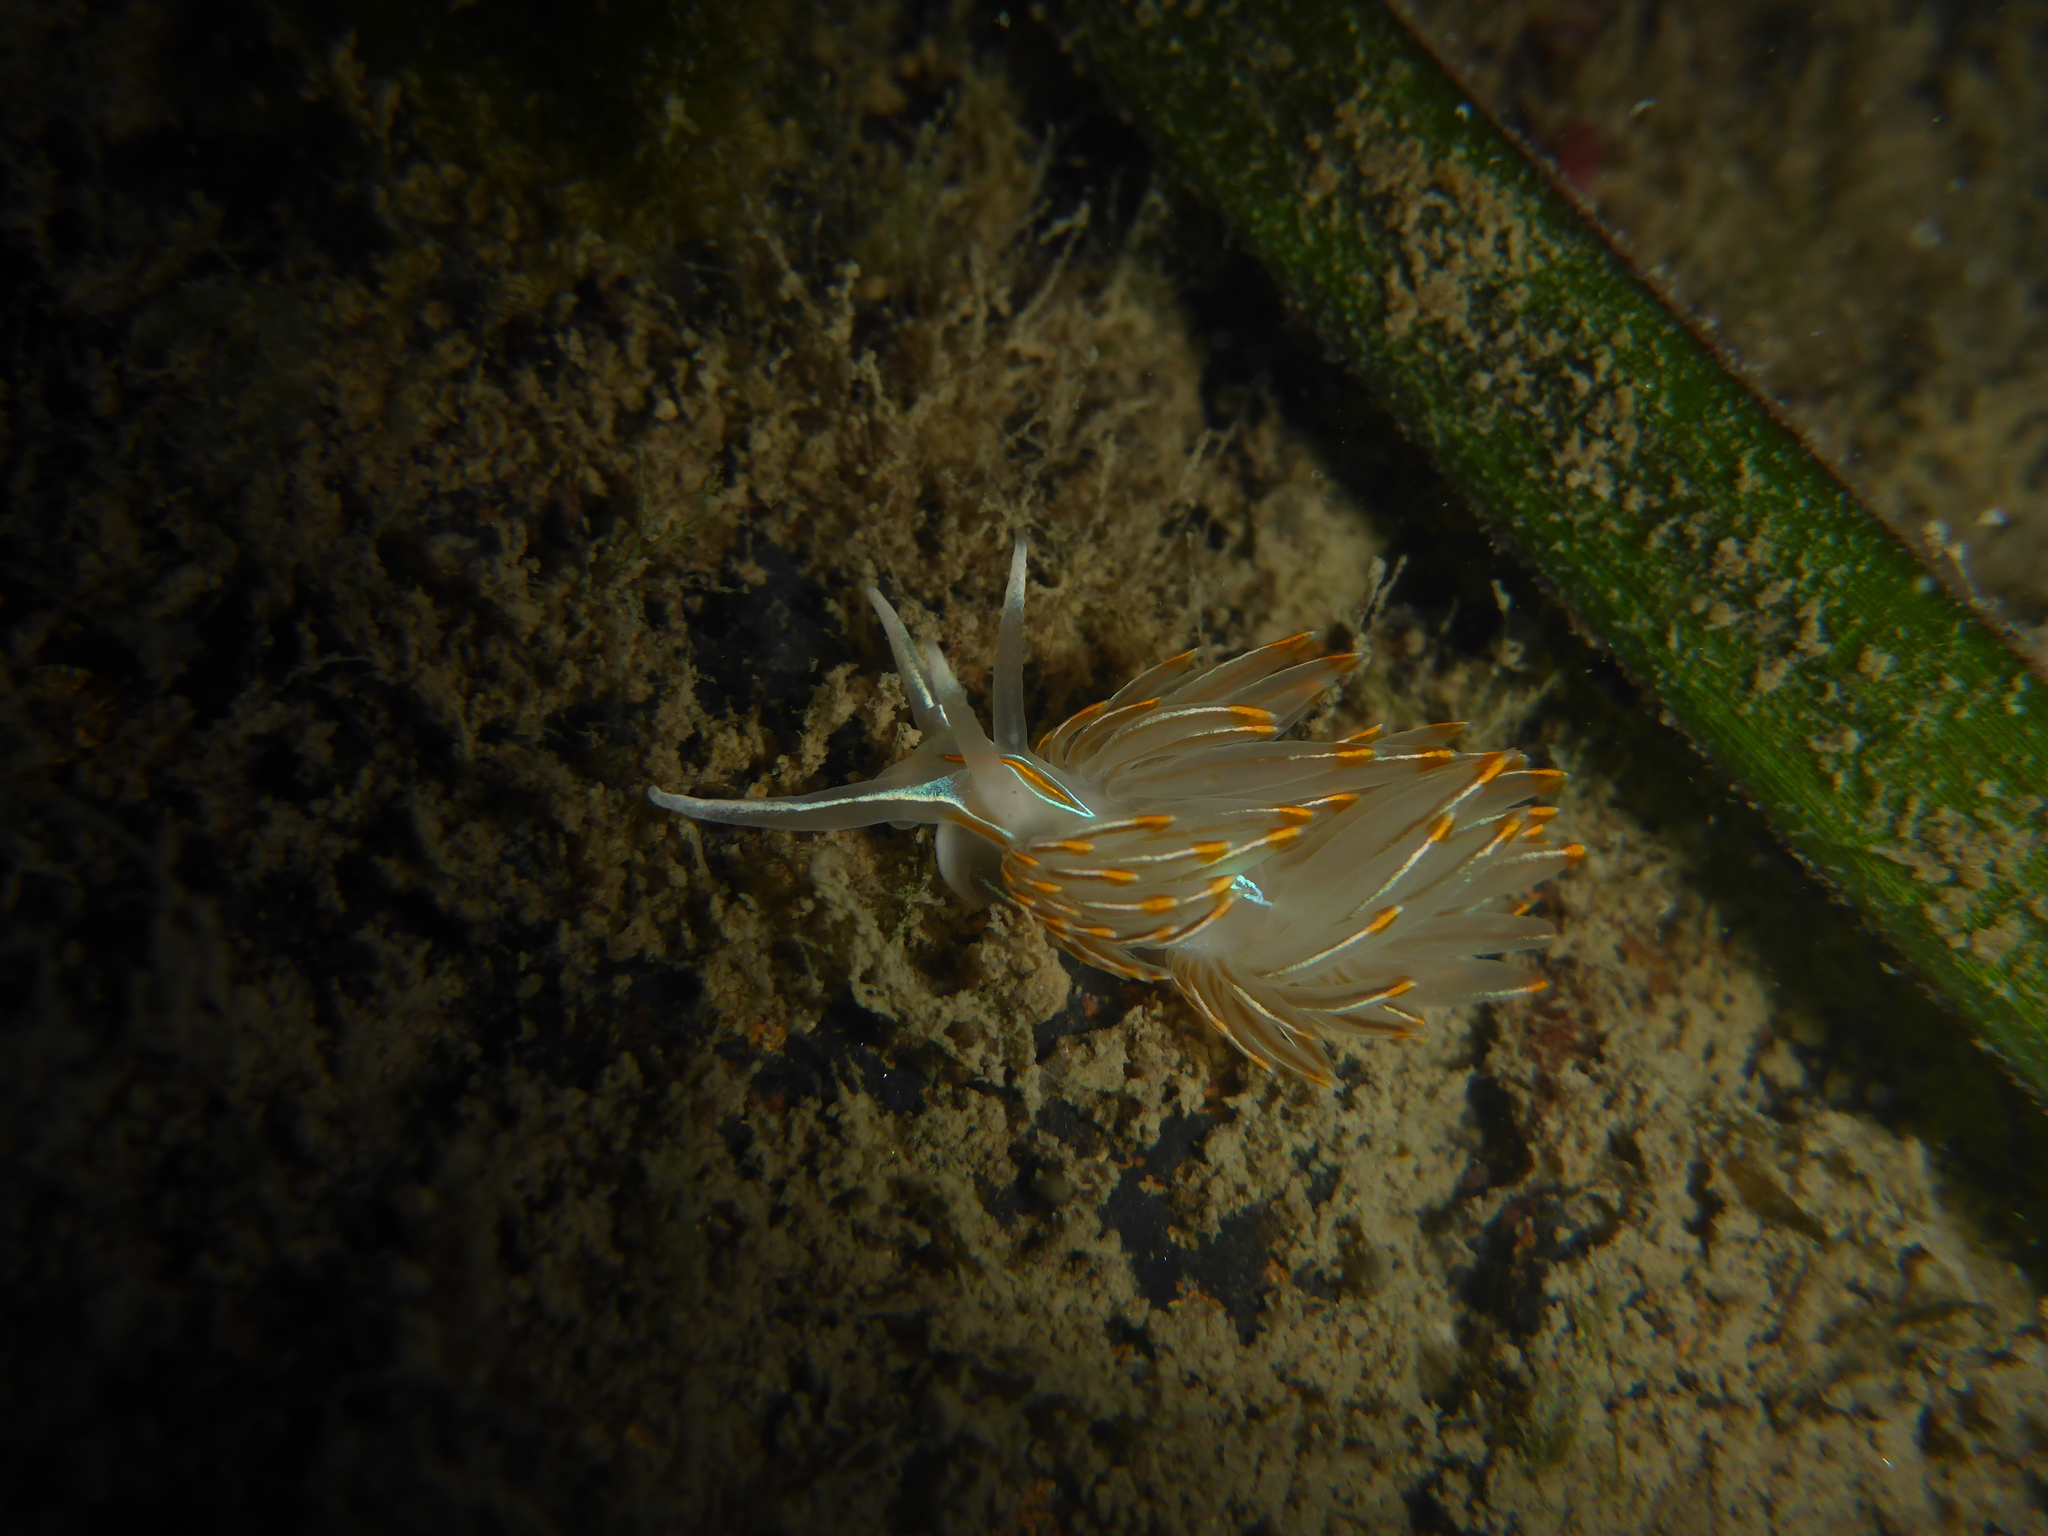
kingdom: Animalia
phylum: Mollusca
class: Gastropoda
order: Nudibranchia
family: Myrrhinidae
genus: Hermissenda
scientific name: Hermissenda crassicornis
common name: Hermissenda
